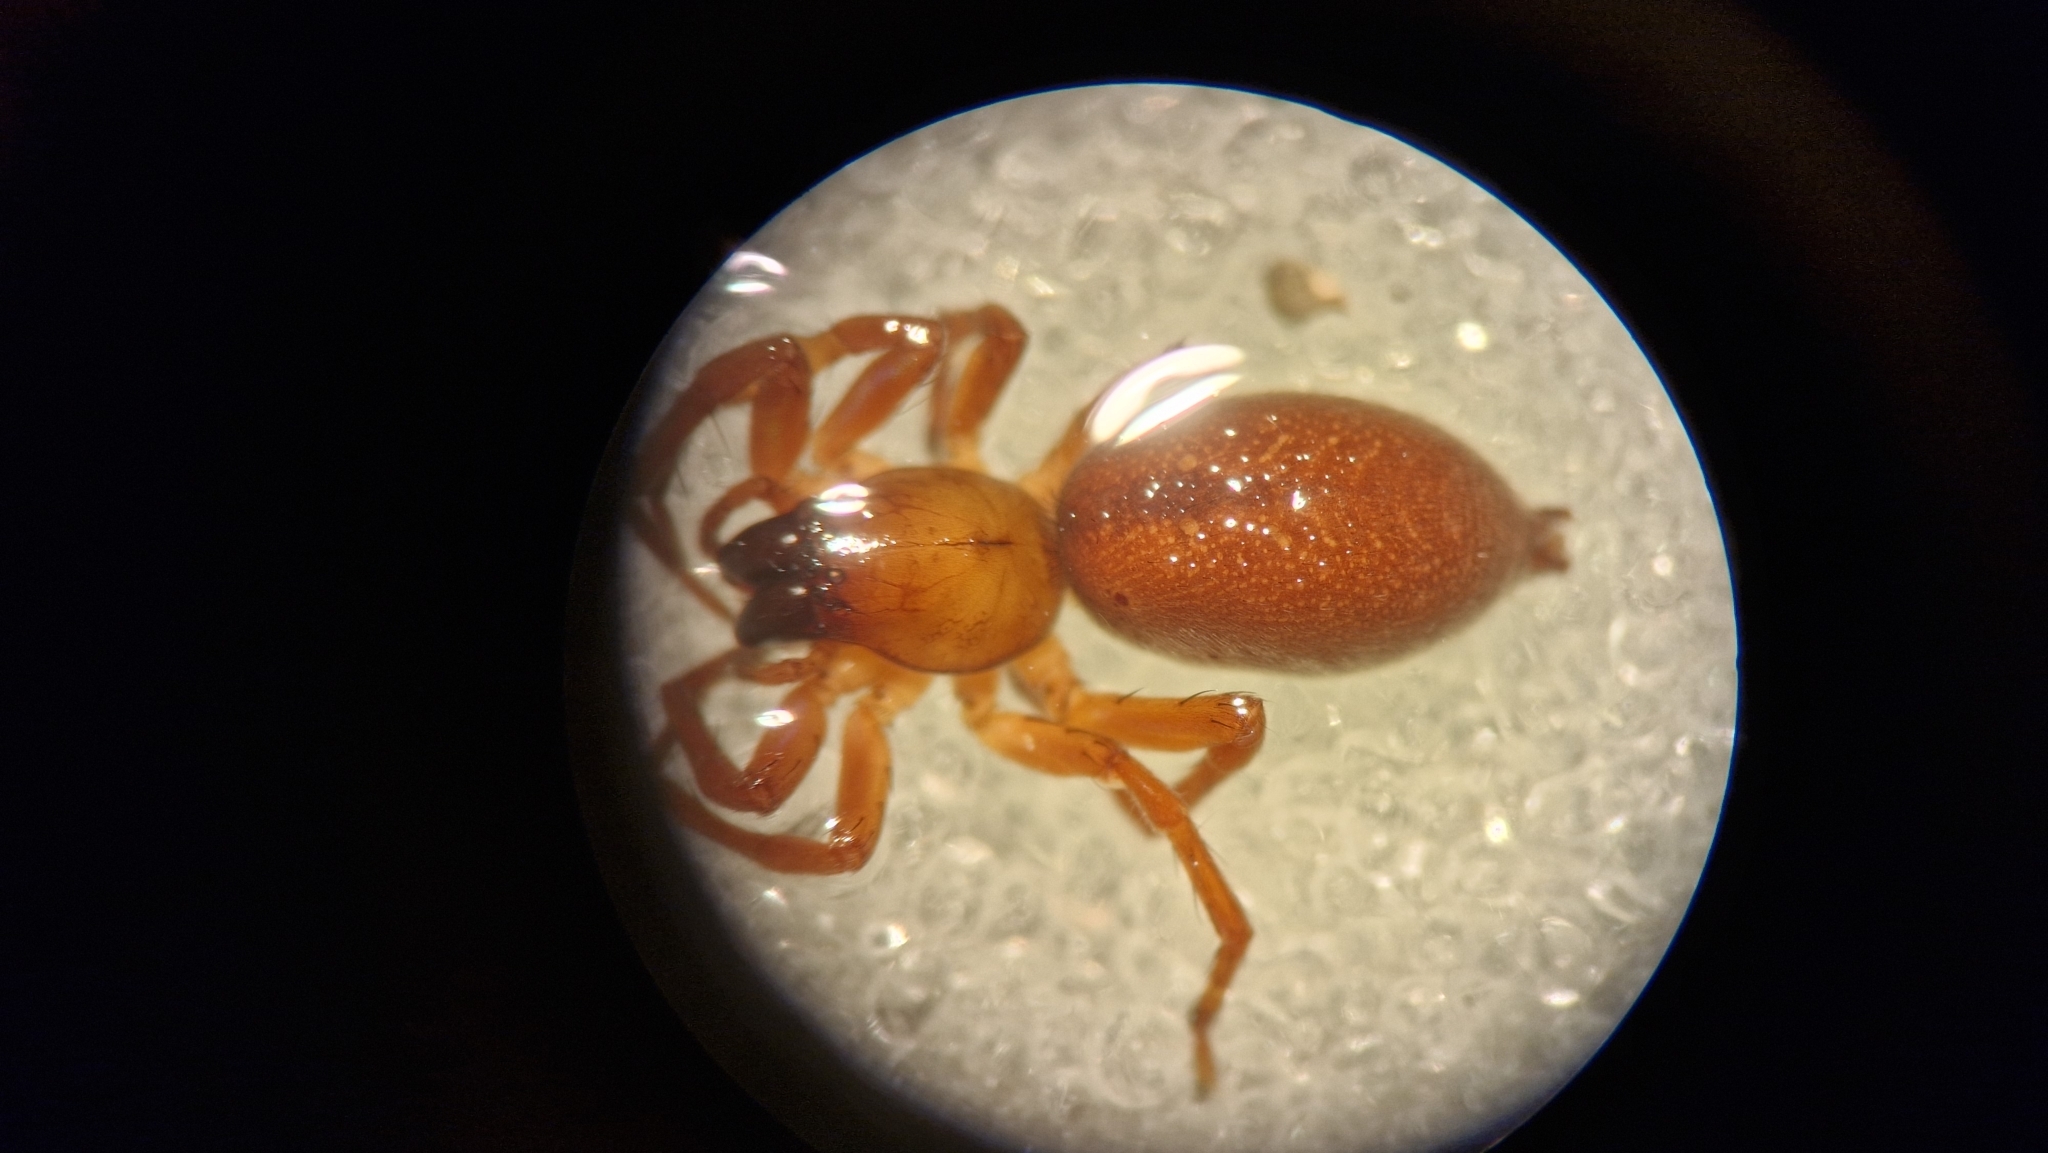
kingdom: Animalia
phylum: Arthropoda
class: Arachnida
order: Araneae
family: Clubionidae
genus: Clubiona
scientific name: Clubiona reclusa
